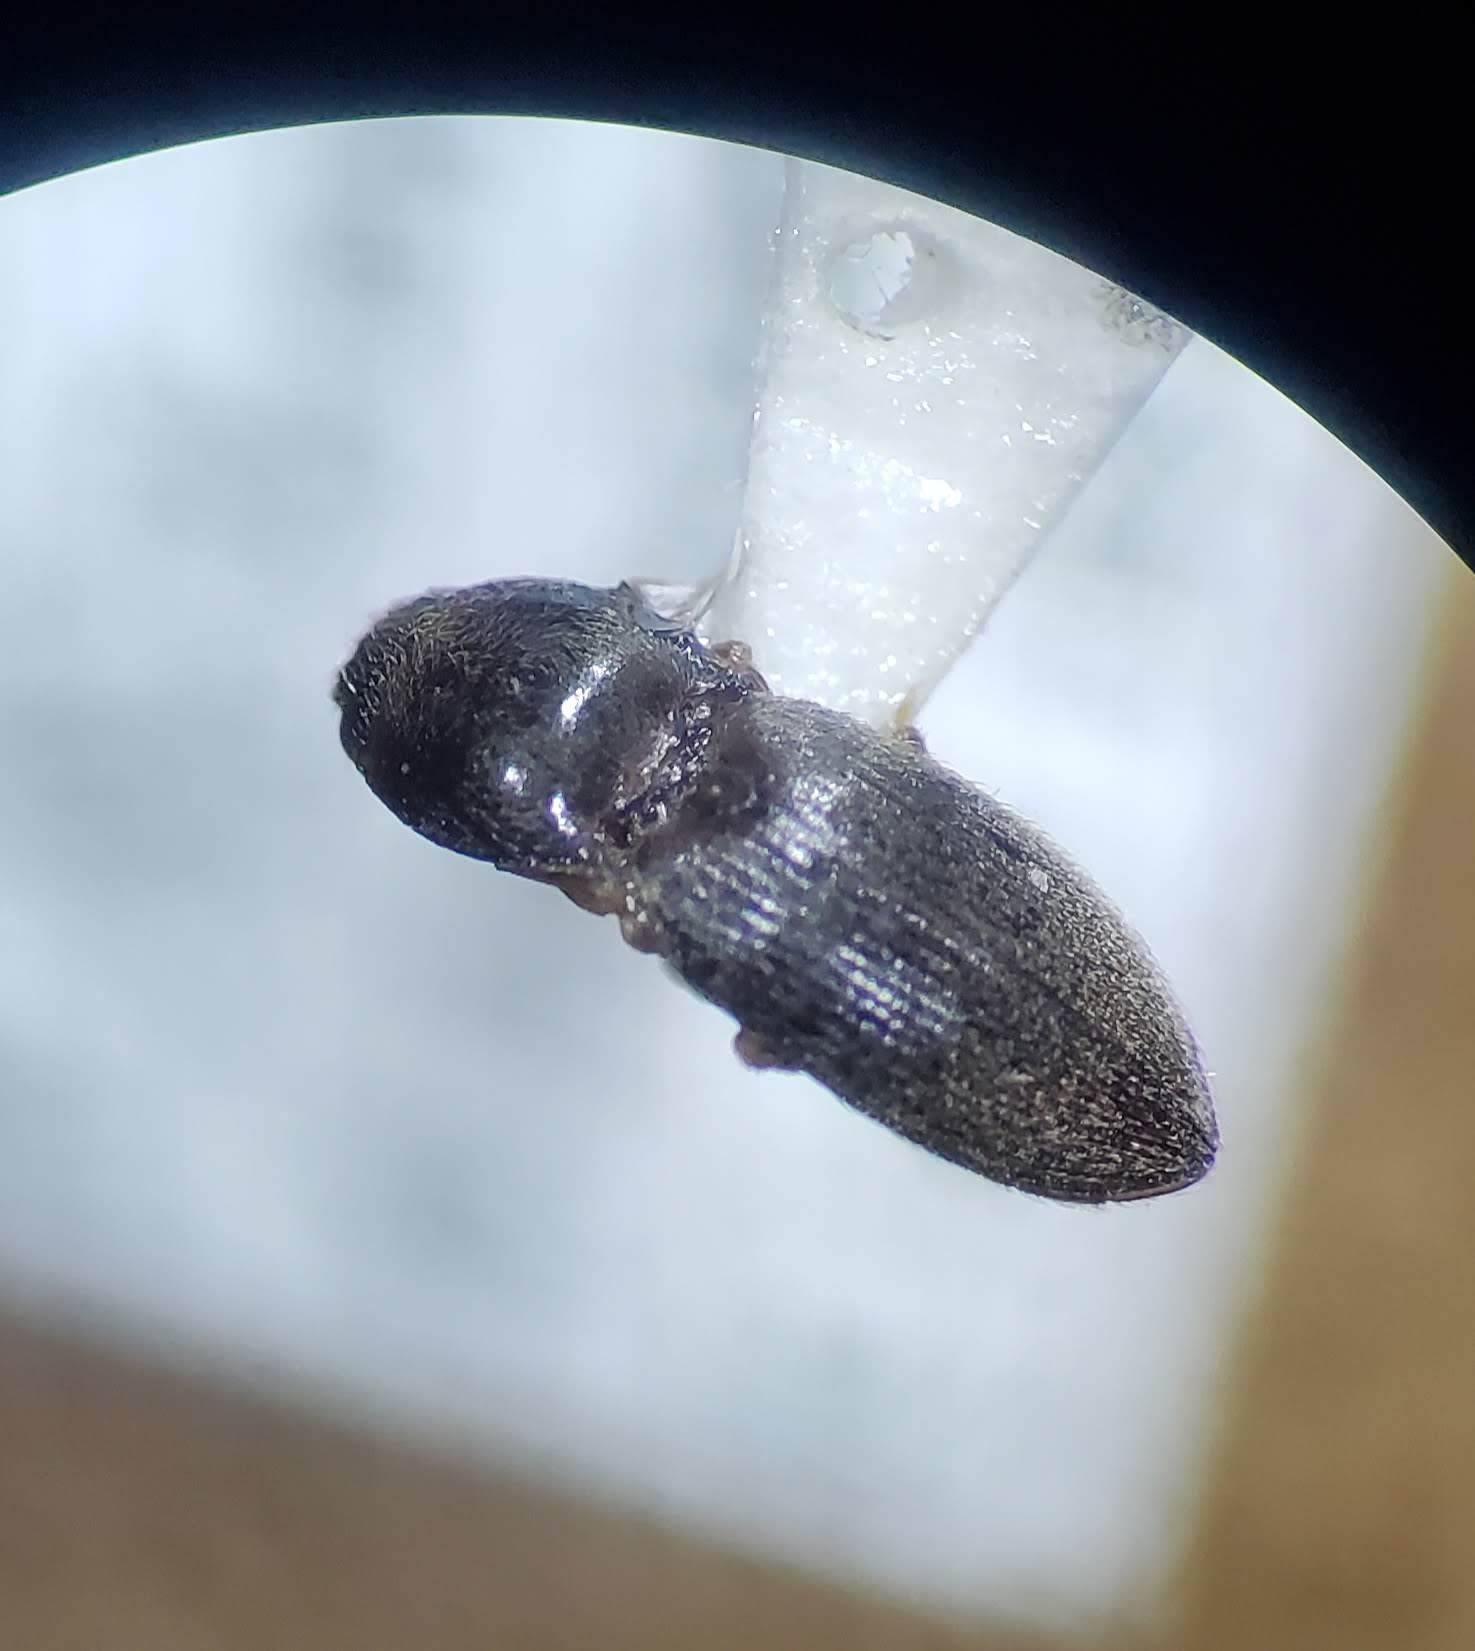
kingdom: Animalia
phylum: Arthropoda
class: Insecta
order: Coleoptera
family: Elateridae
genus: Anchastus
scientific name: Anchastus cinereipennis
